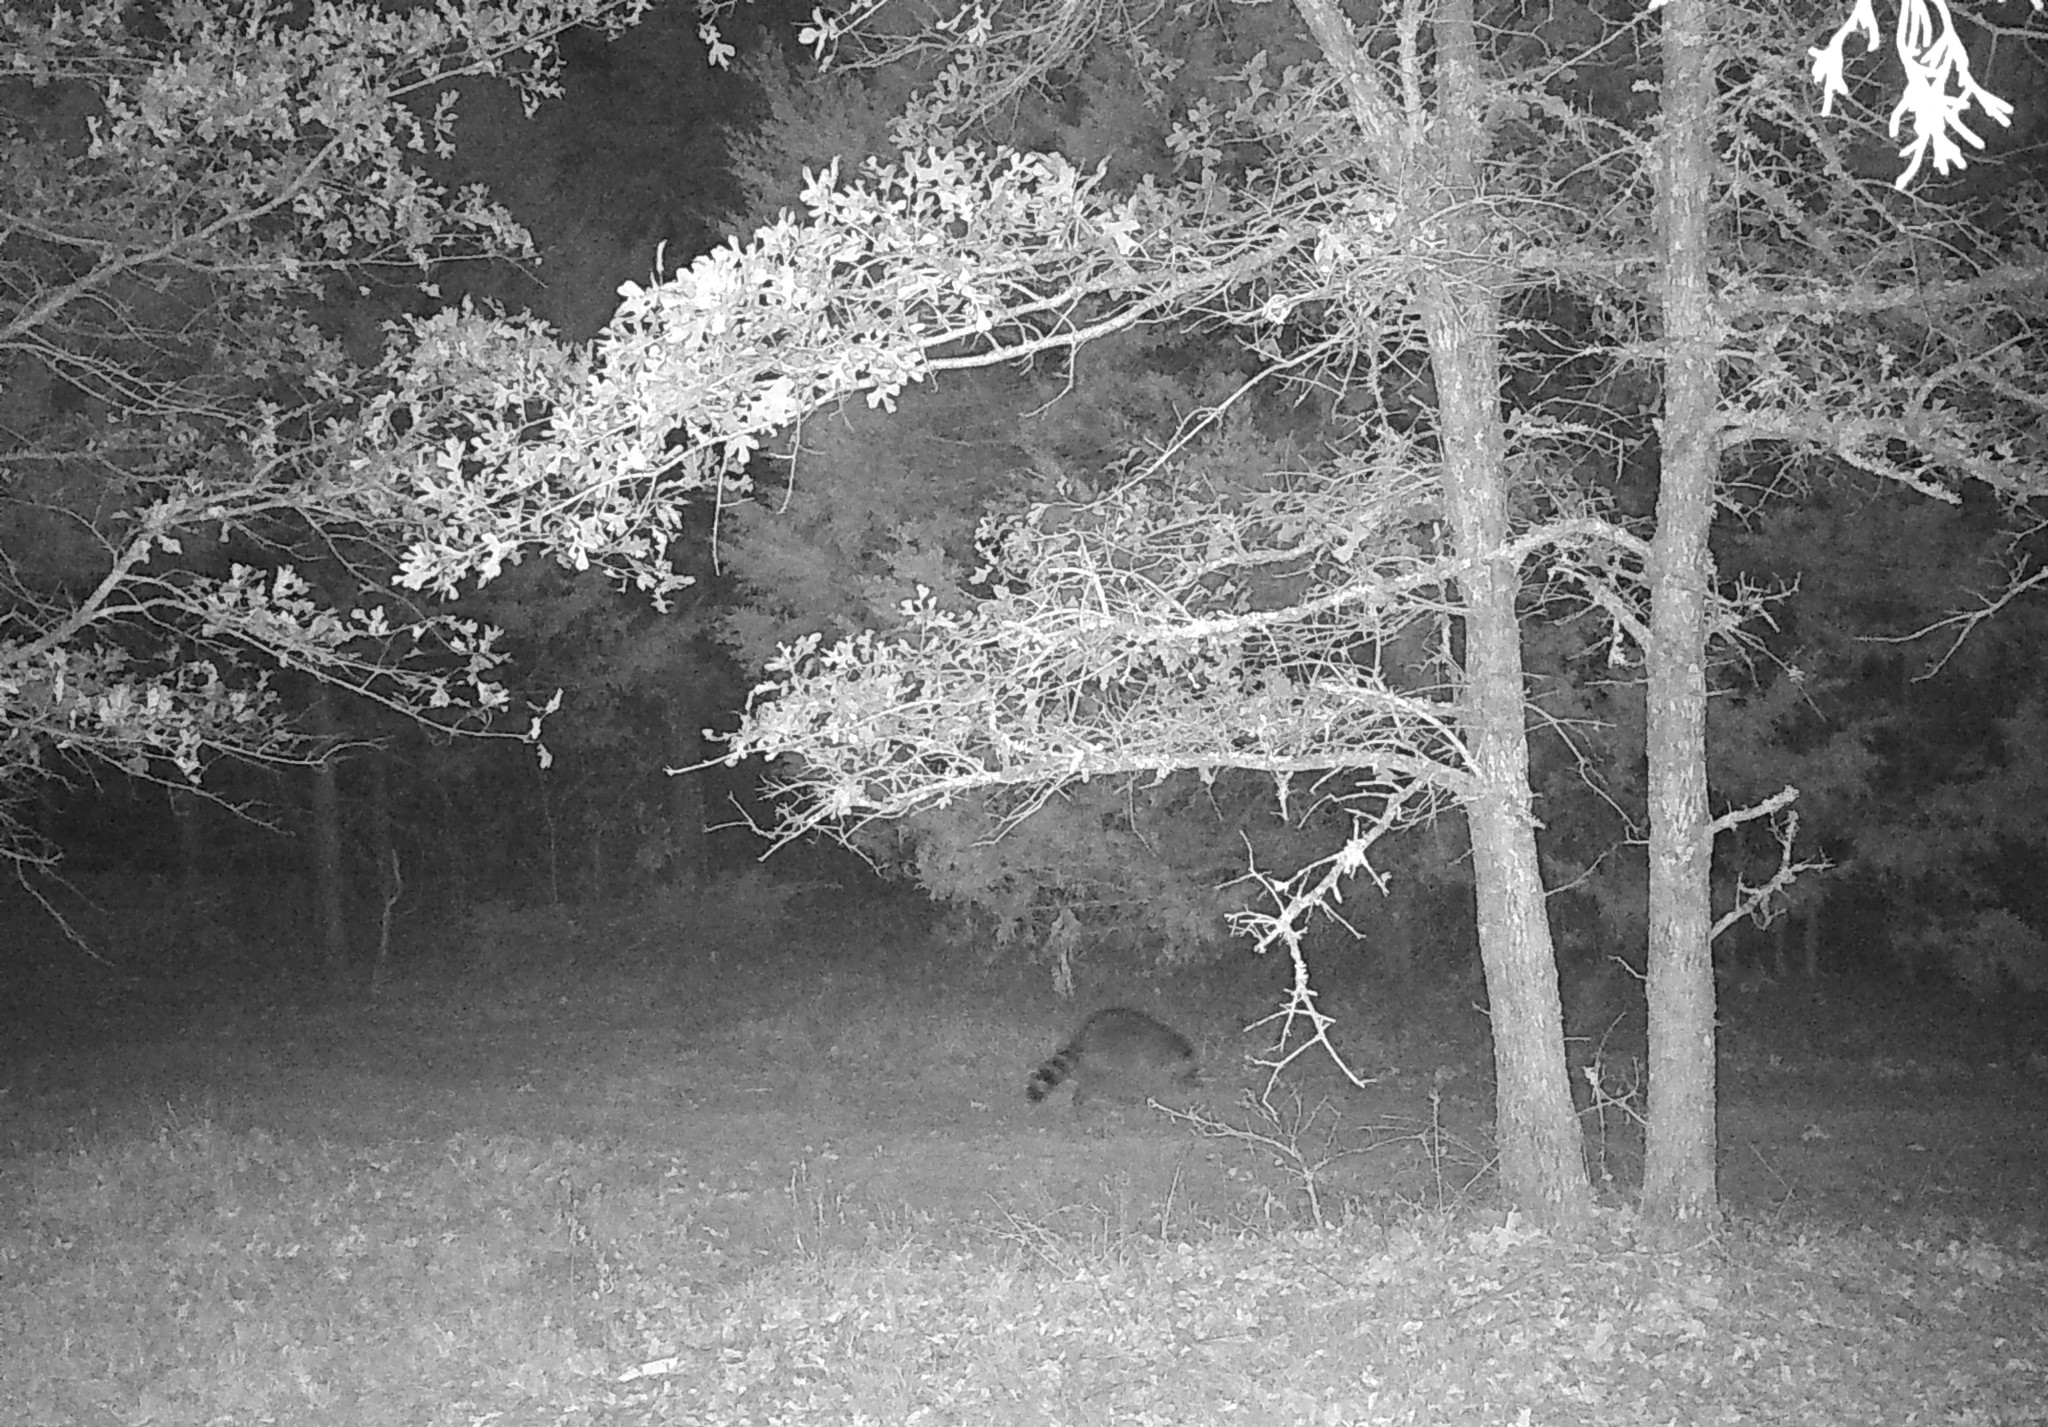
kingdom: Animalia
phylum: Chordata
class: Mammalia
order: Carnivora
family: Procyonidae
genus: Procyon
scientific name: Procyon lotor
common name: Raccoon
